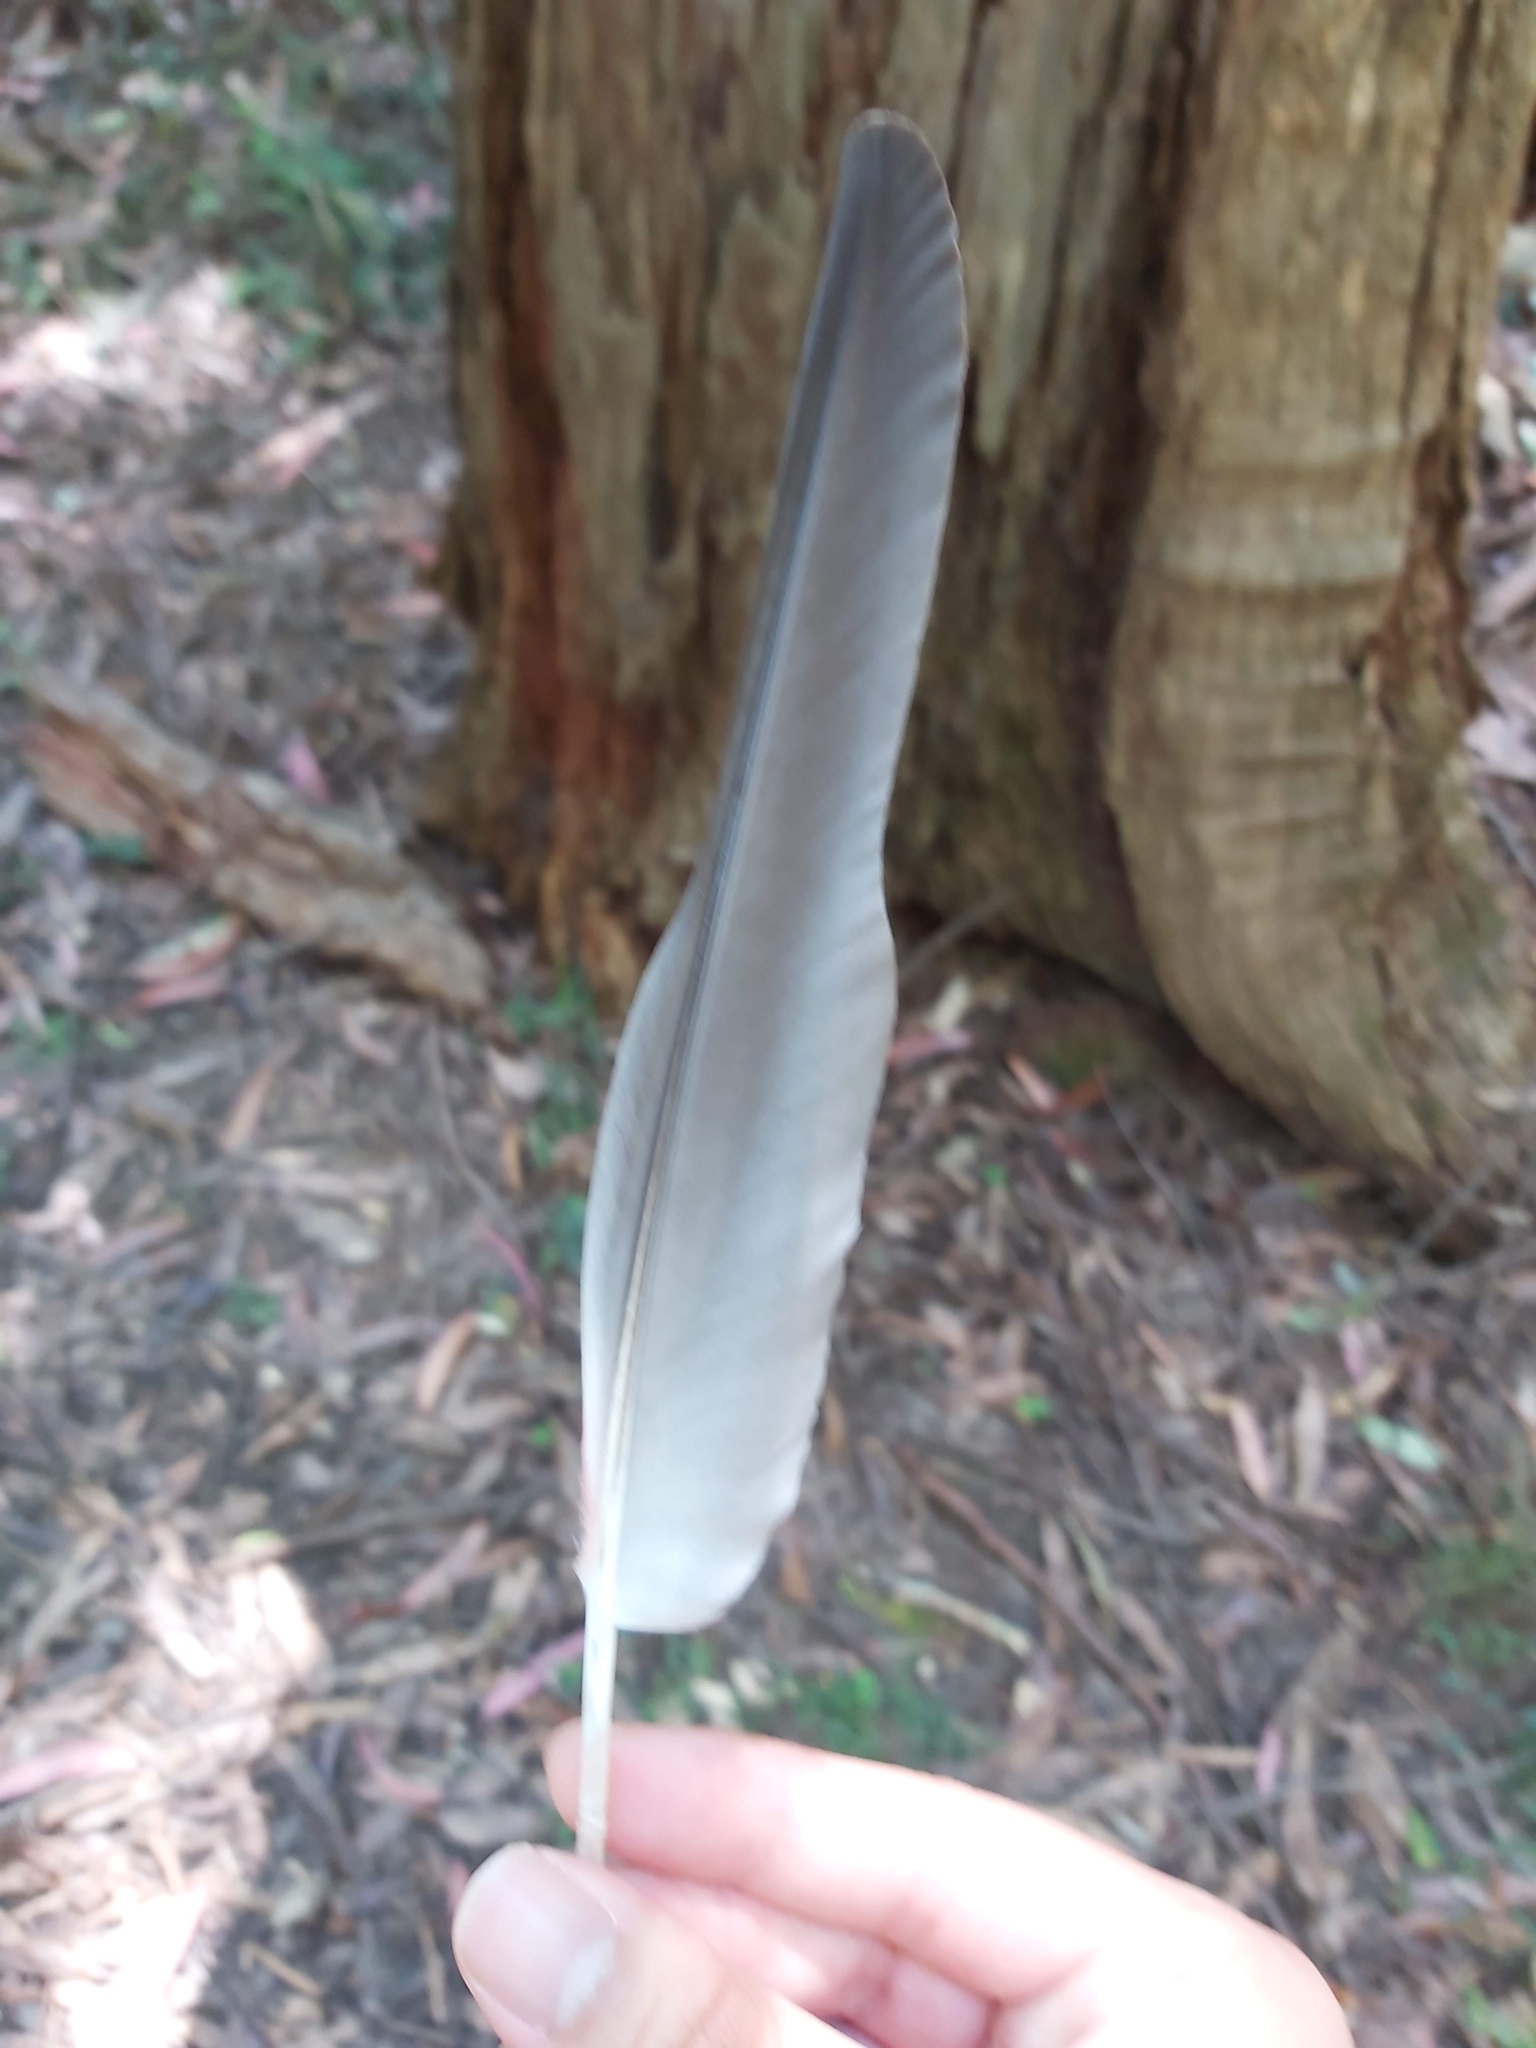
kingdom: Animalia
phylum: Chordata
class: Aves
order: Psittaciformes
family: Psittacidae
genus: Eolophus
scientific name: Eolophus roseicapilla
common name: Galah
